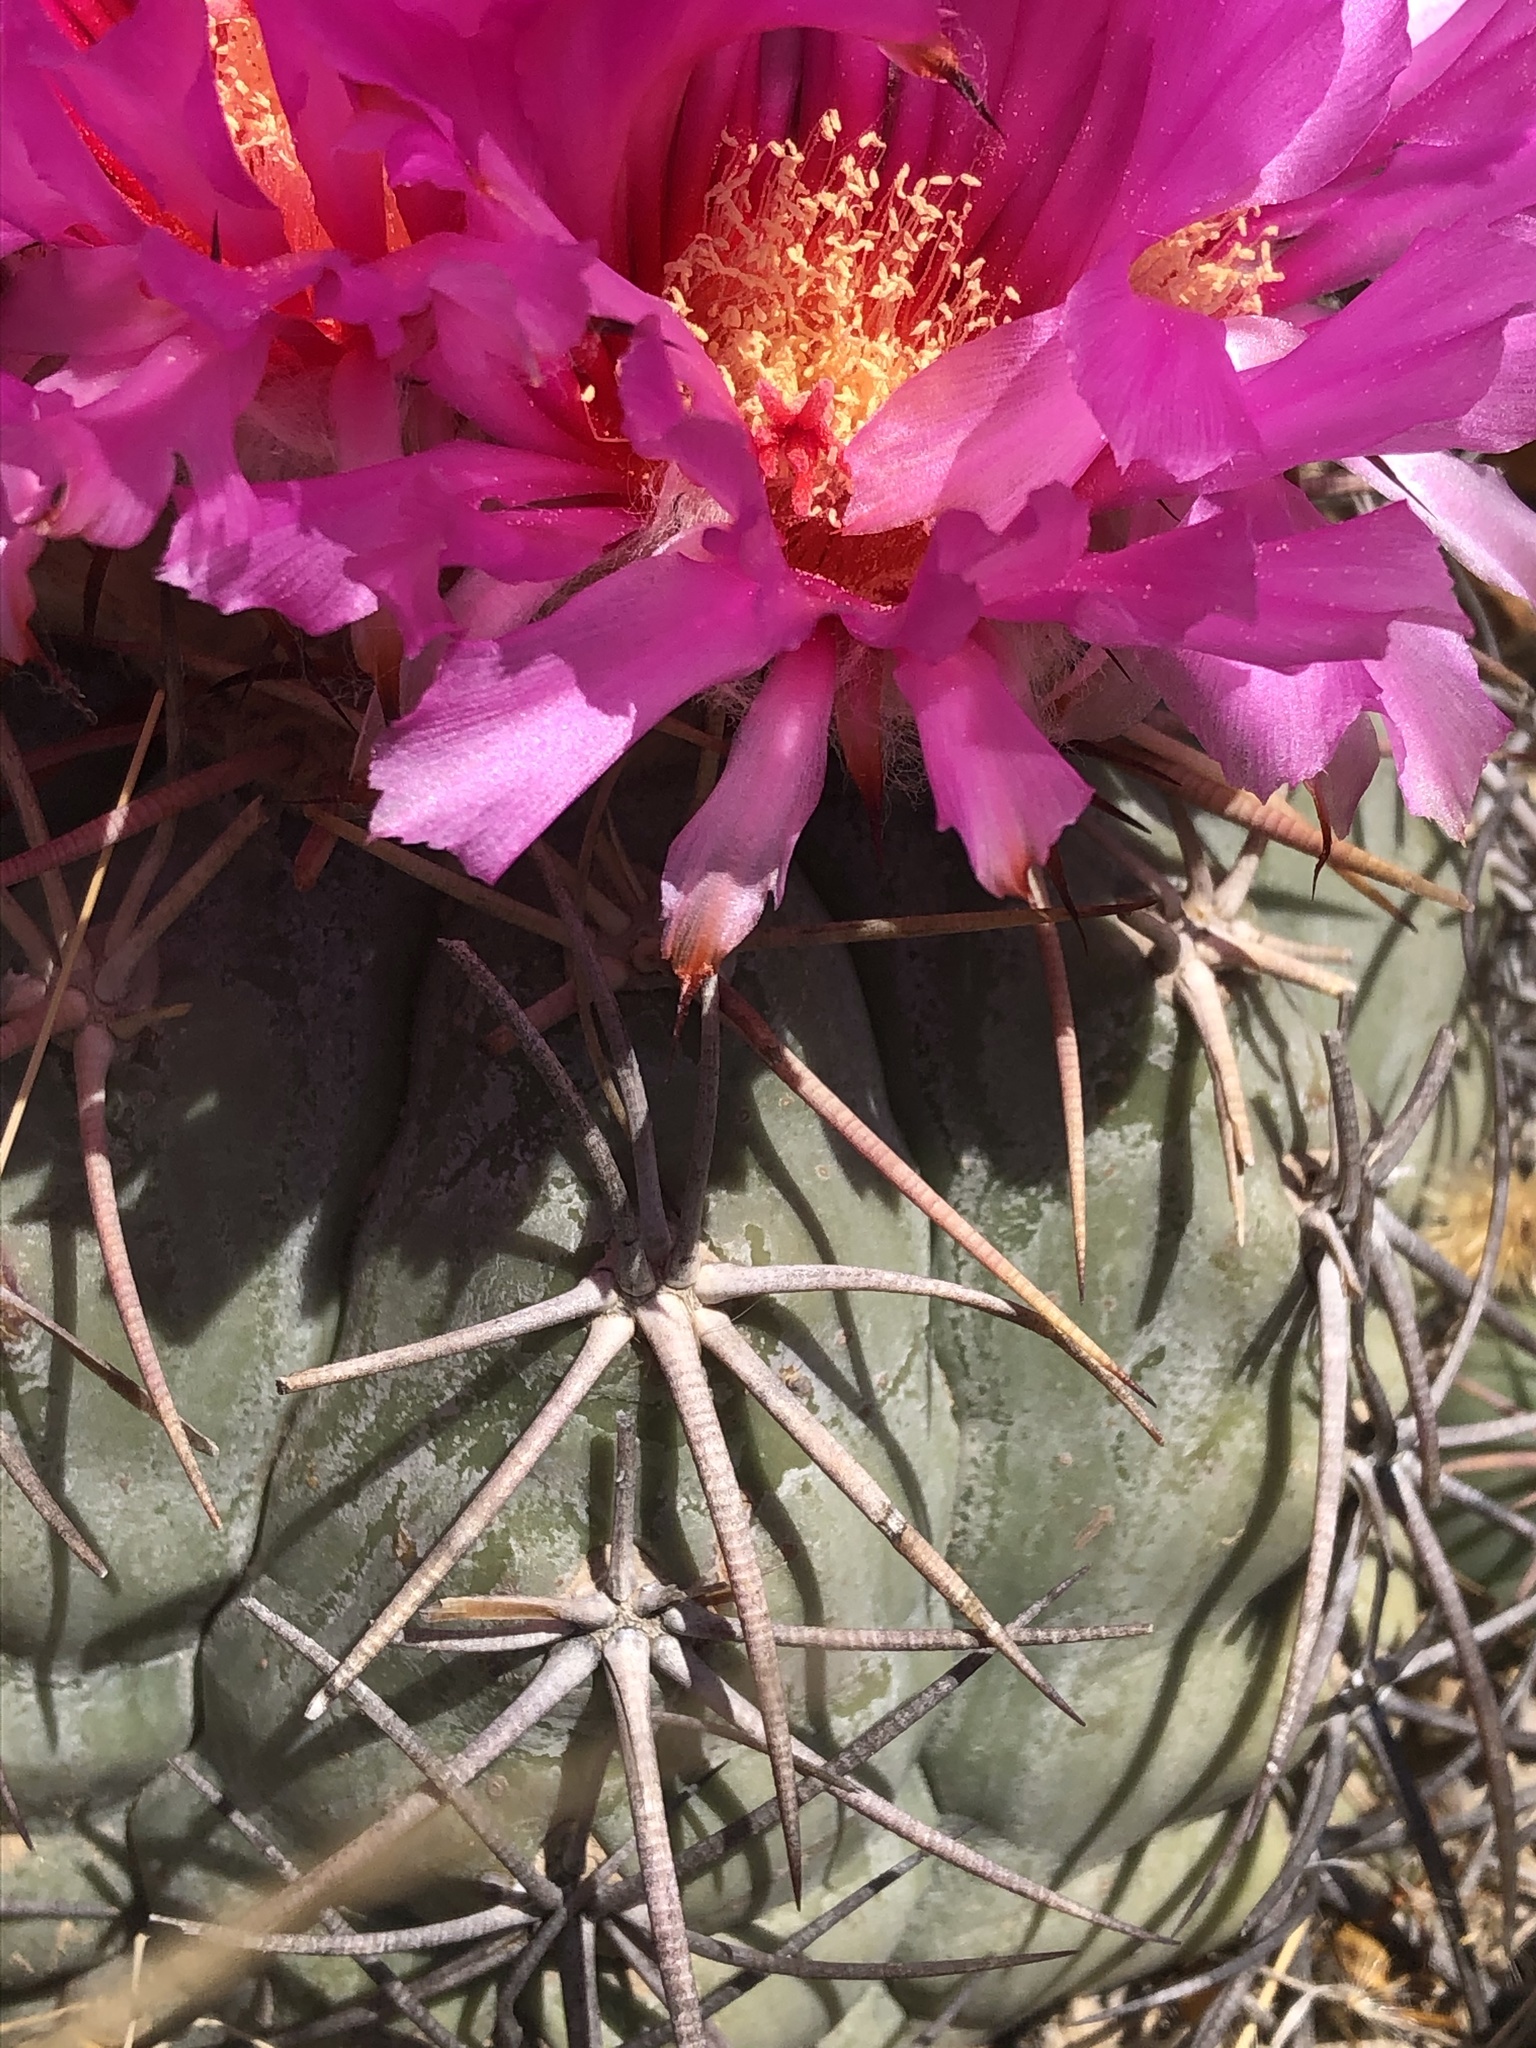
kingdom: Plantae
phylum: Tracheophyta
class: Magnoliopsida
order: Caryophyllales
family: Cactaceae
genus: Echinocactus
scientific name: Echinocactus horizonthalonius
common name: Devilshead
